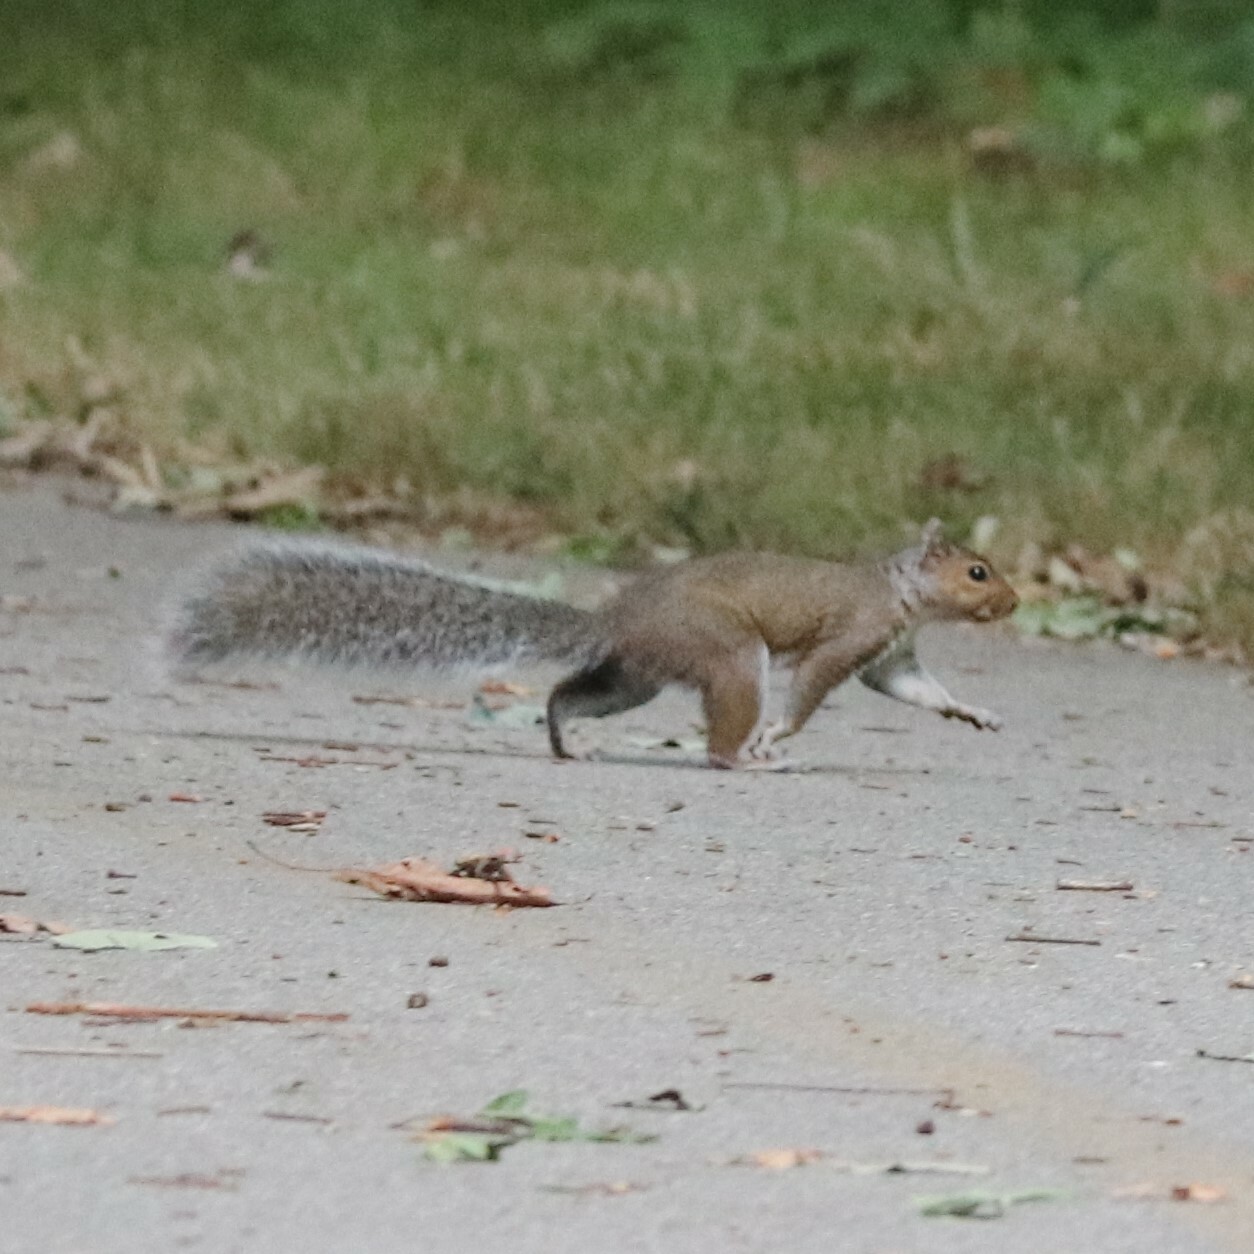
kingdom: Animalia
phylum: Chordata
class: Mammalia
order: Rodentia
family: Sciuridae
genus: Sciurus
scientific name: Sciurus carolinensis
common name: Eastern gray squirrel
